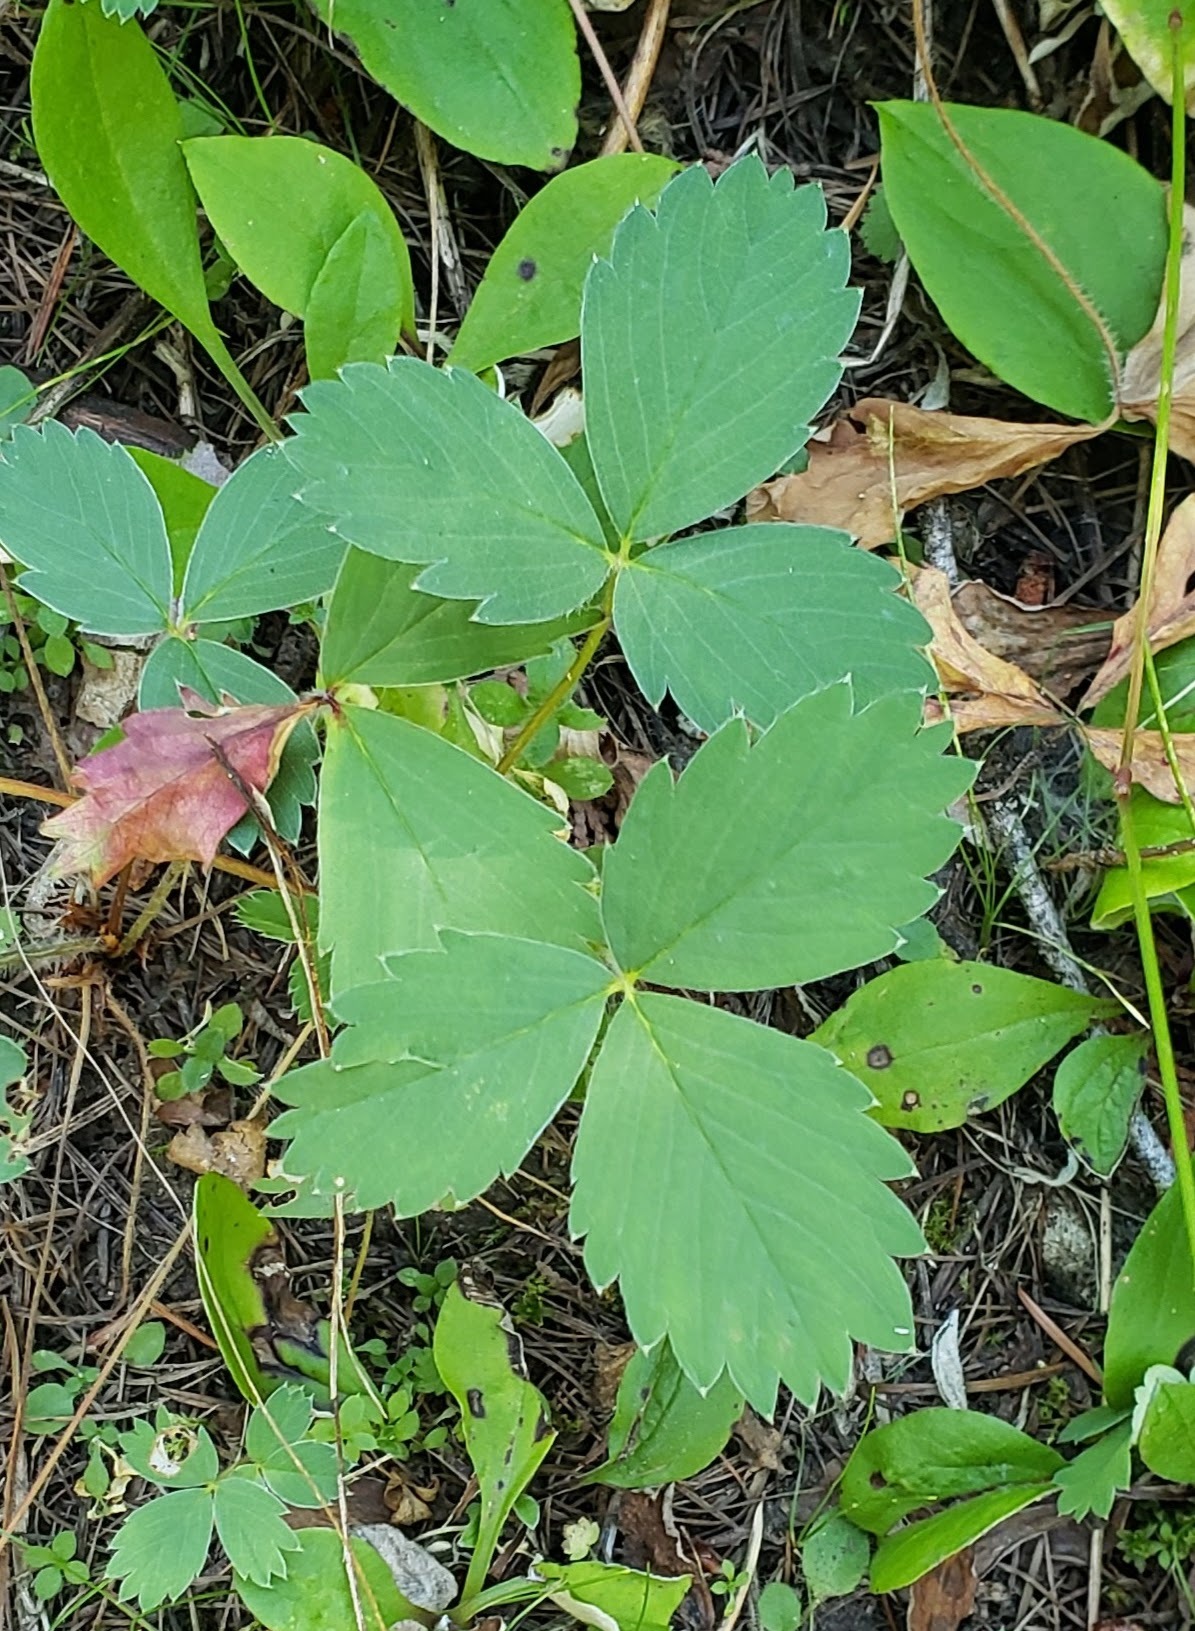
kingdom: Plantae
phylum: Tracheophyta
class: Magnoliopsida
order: Rosales
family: Rosaceae
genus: Fragaria
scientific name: Fragaria virginiana
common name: Thickleaved wild strawberry
